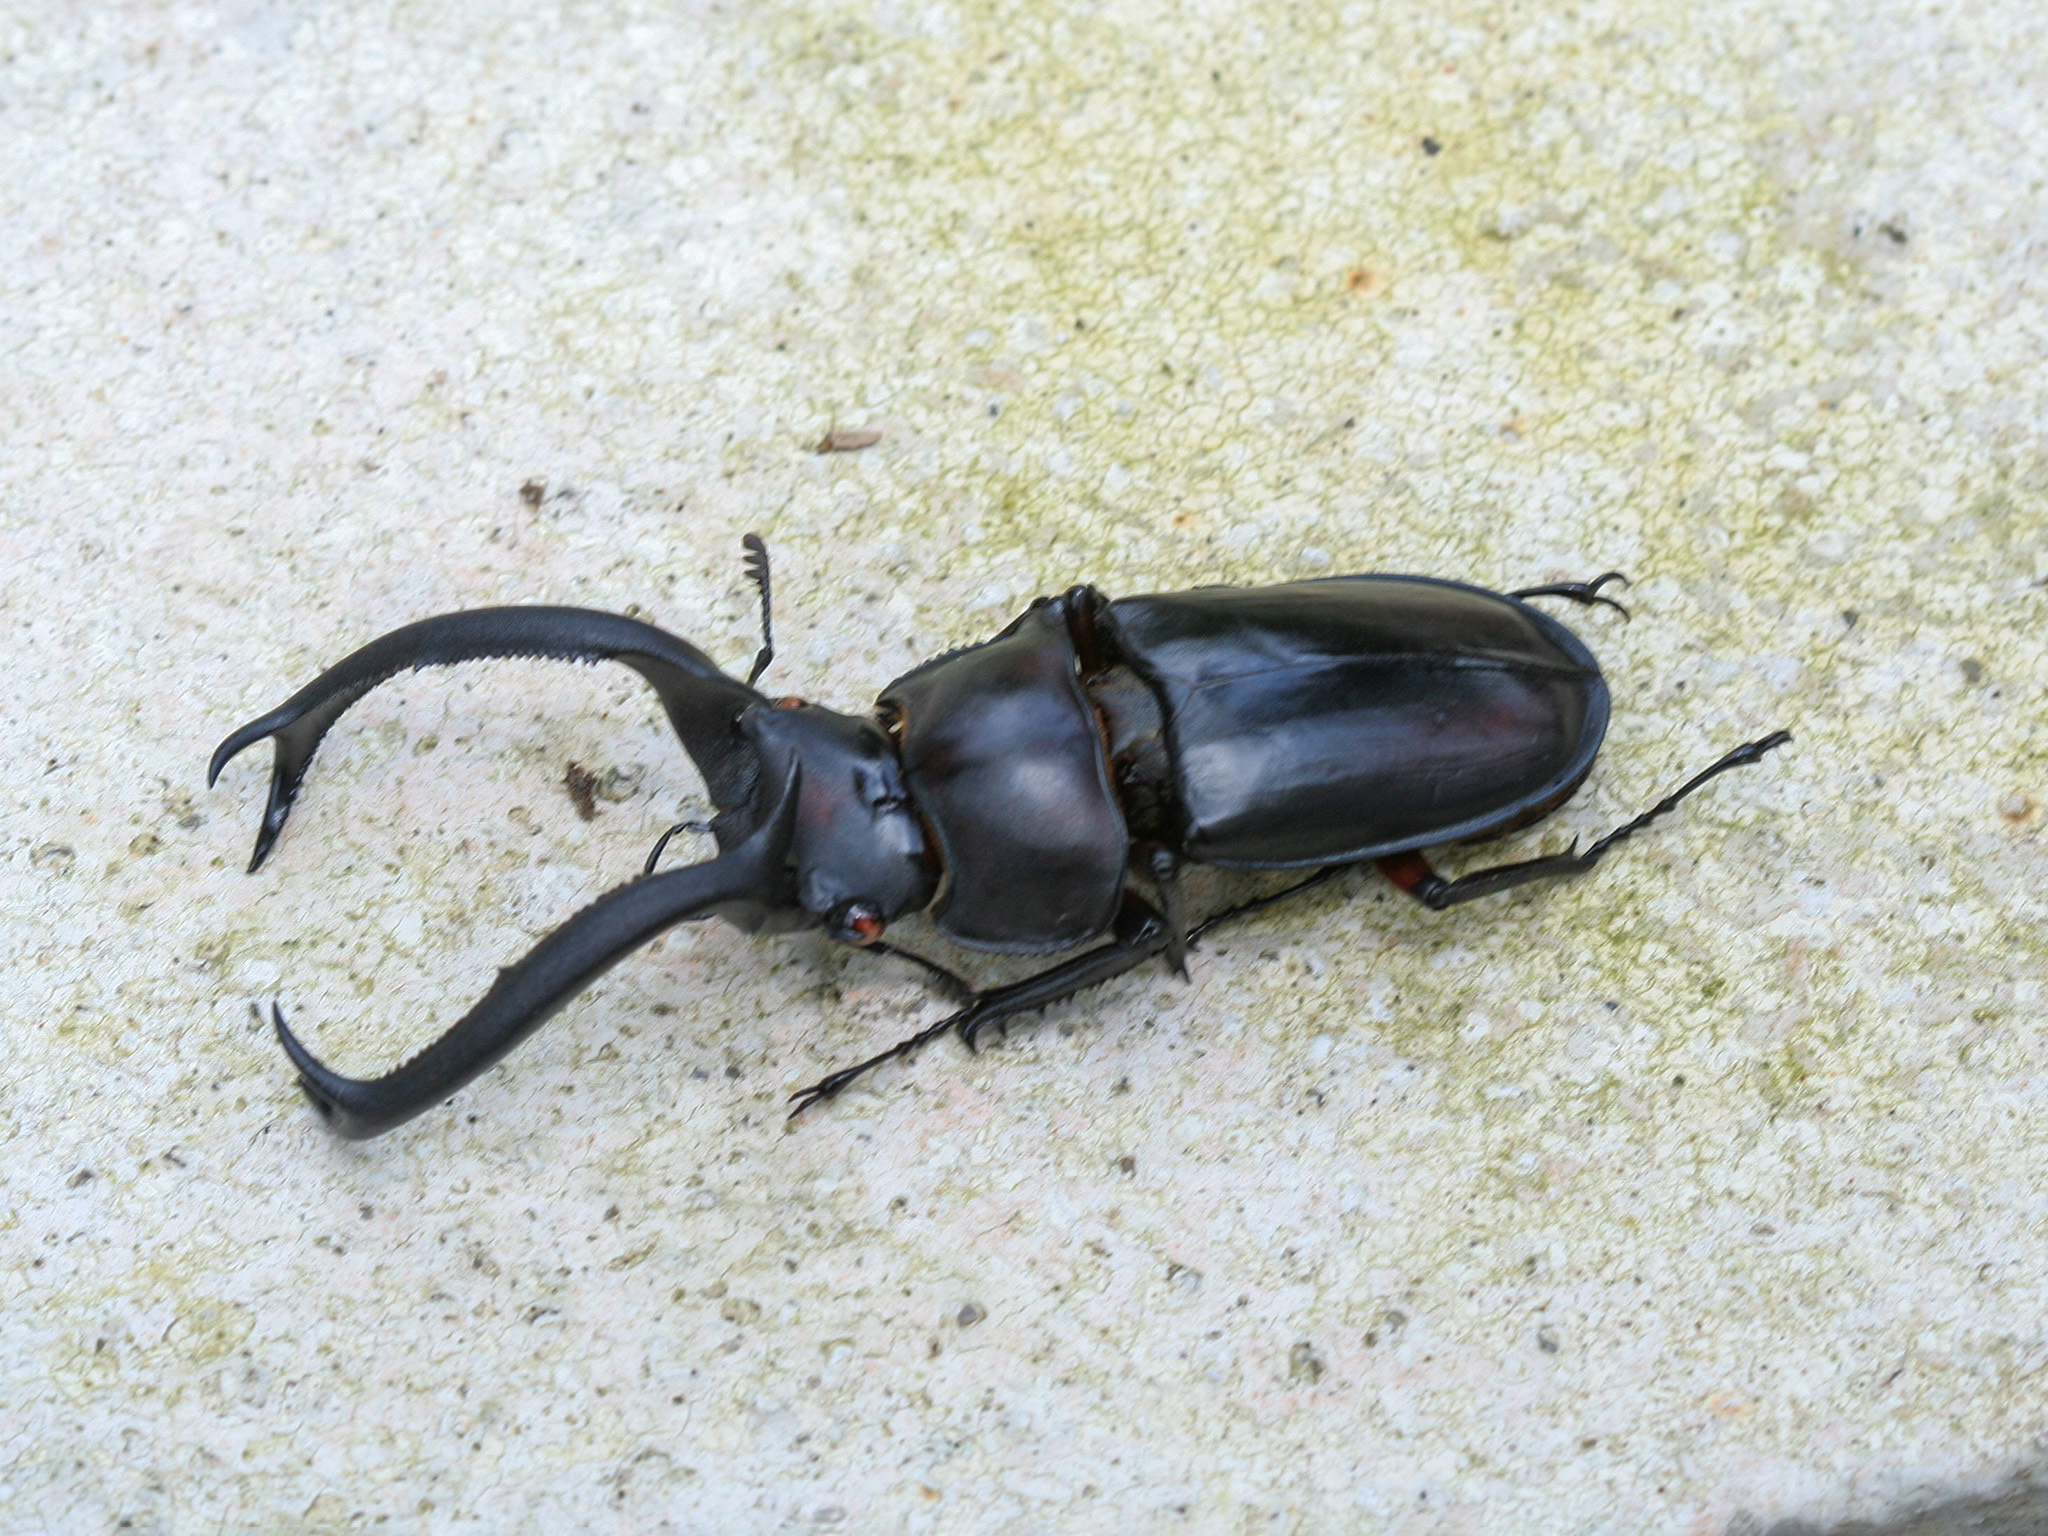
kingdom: Animalia
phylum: Arthropoda
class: Insecta
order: Coleoptera
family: Lucanidae
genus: Rhaetulus
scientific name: Rhaetulus didieri
